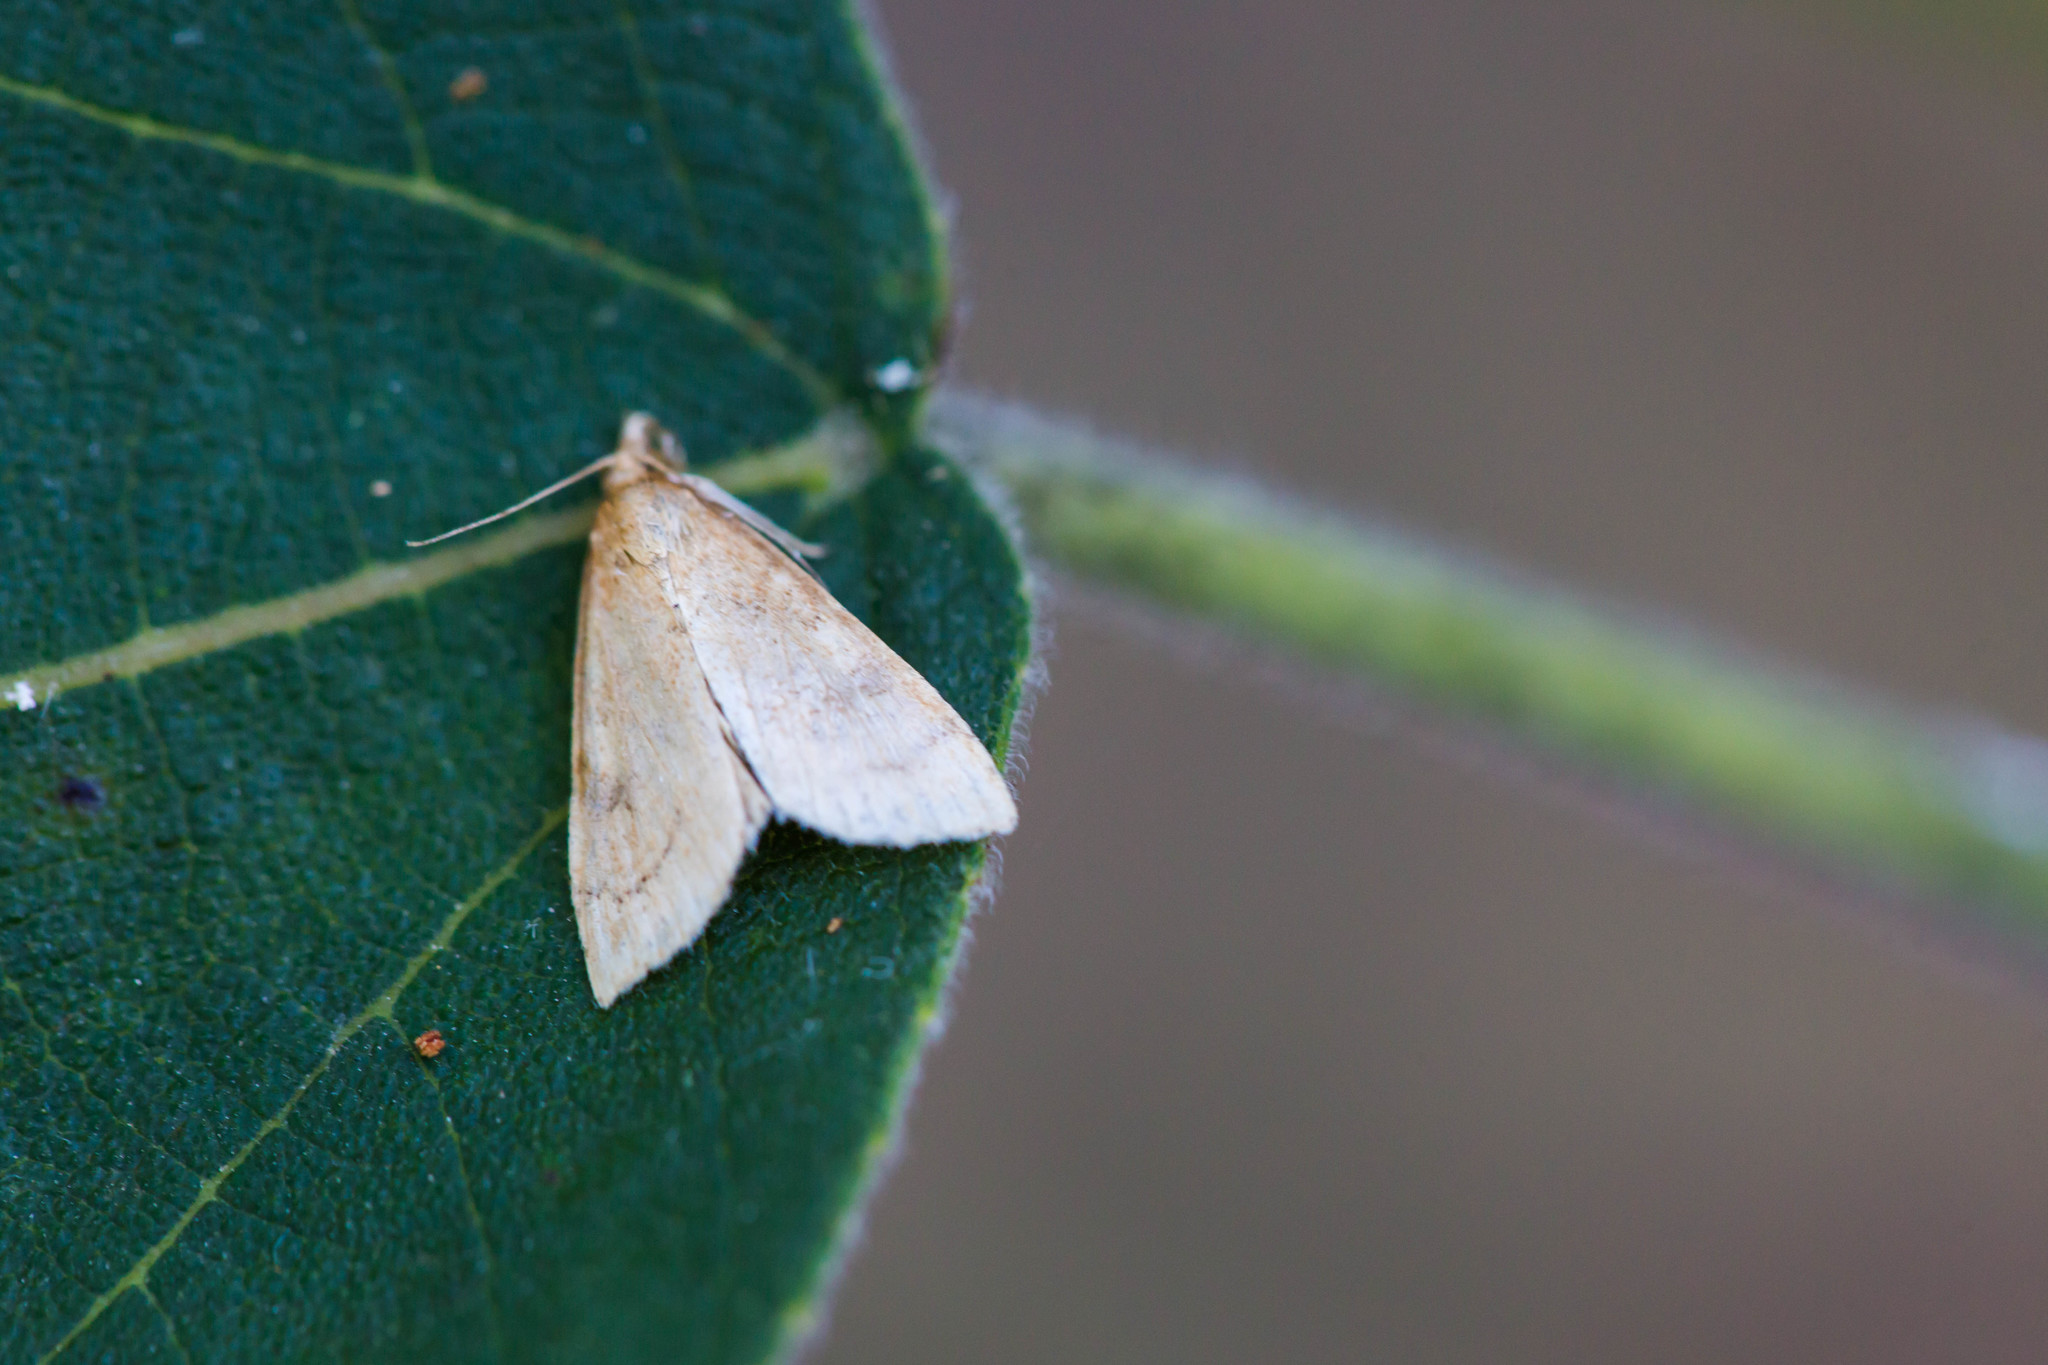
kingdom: Animalia
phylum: Arthropoda
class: Insecta
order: Lepidoptera
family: Crambidae
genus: Udea
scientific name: Udea rubigalis
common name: Celery leaftier moth
